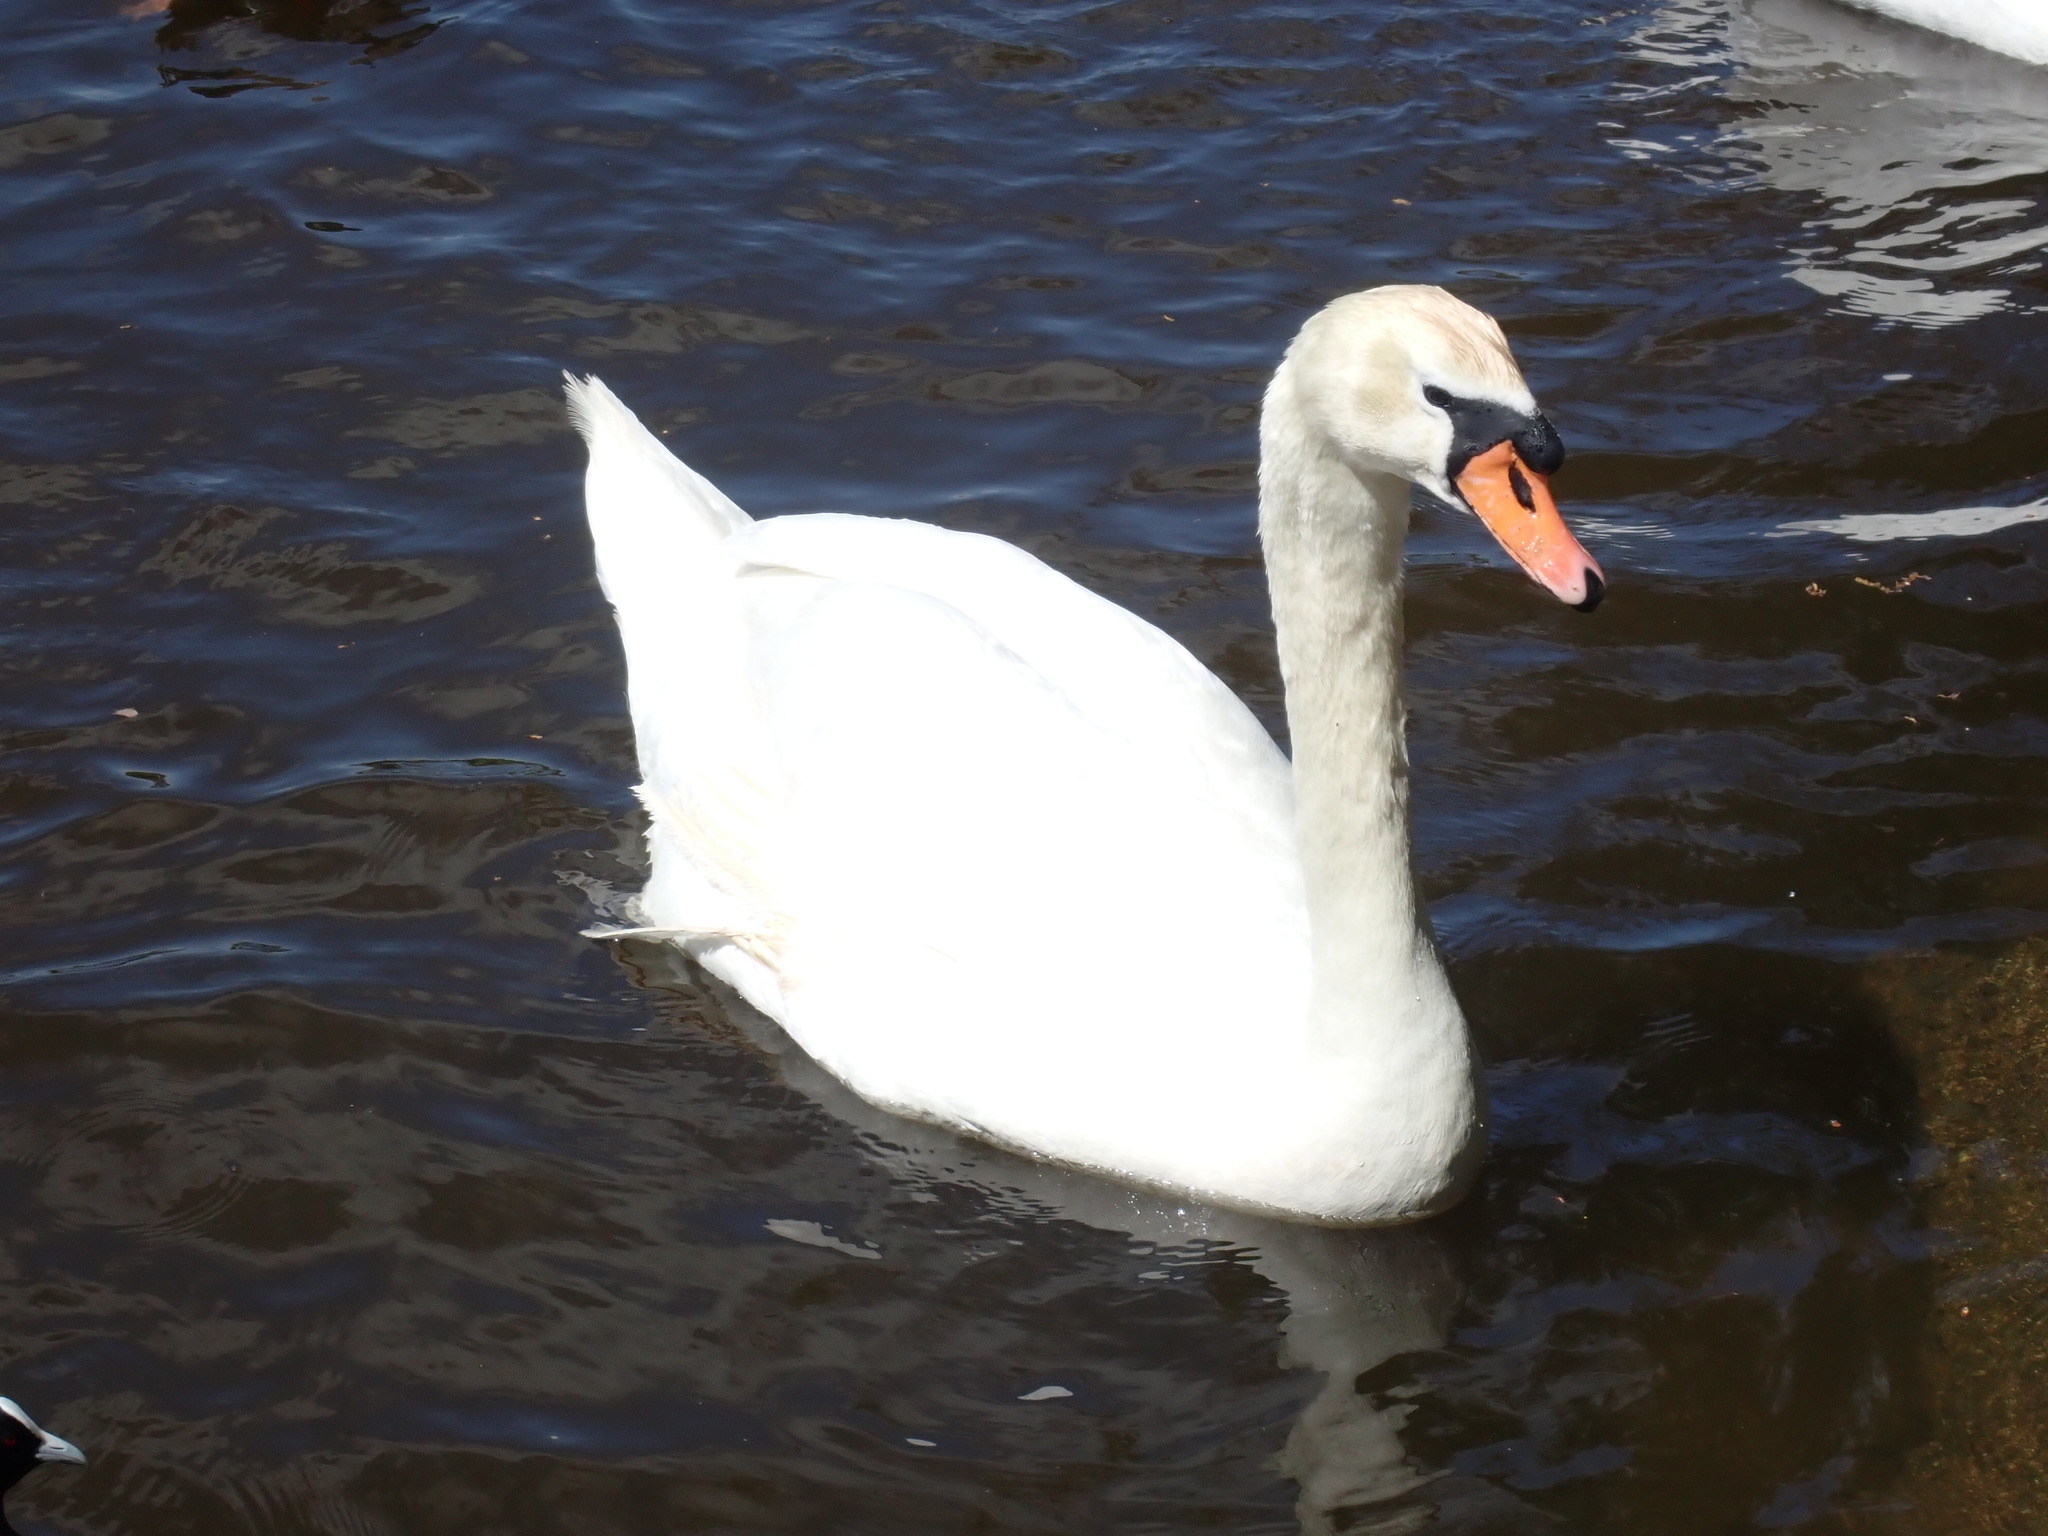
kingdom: Animalia
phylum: Chordata
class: Aves
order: Anseriformes
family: Anatidae
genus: Cygnus
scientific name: Cygnus olor
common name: Mute swan
